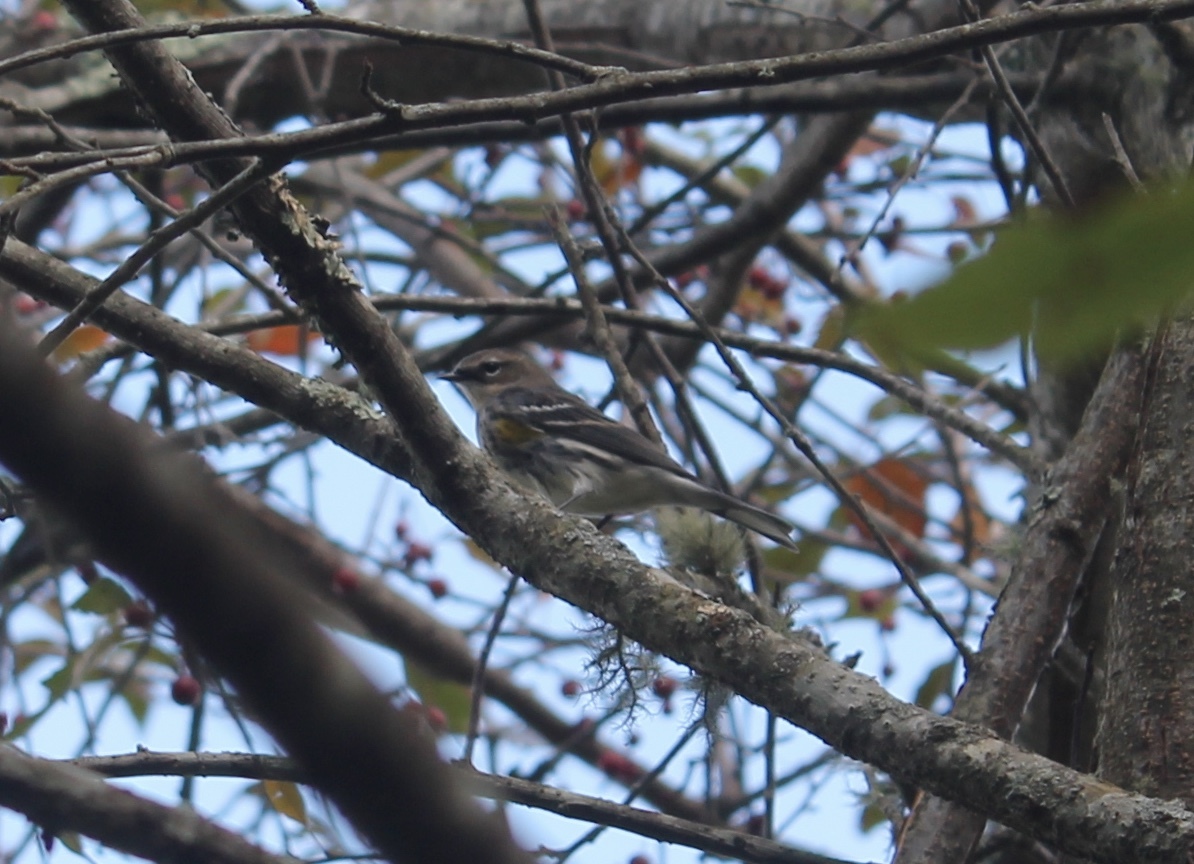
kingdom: Animalia
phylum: Chordata
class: Aves
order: Passeriformes
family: Parulidae
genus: Setophaga
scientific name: Setophaga coronata
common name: Myrtle warbler
